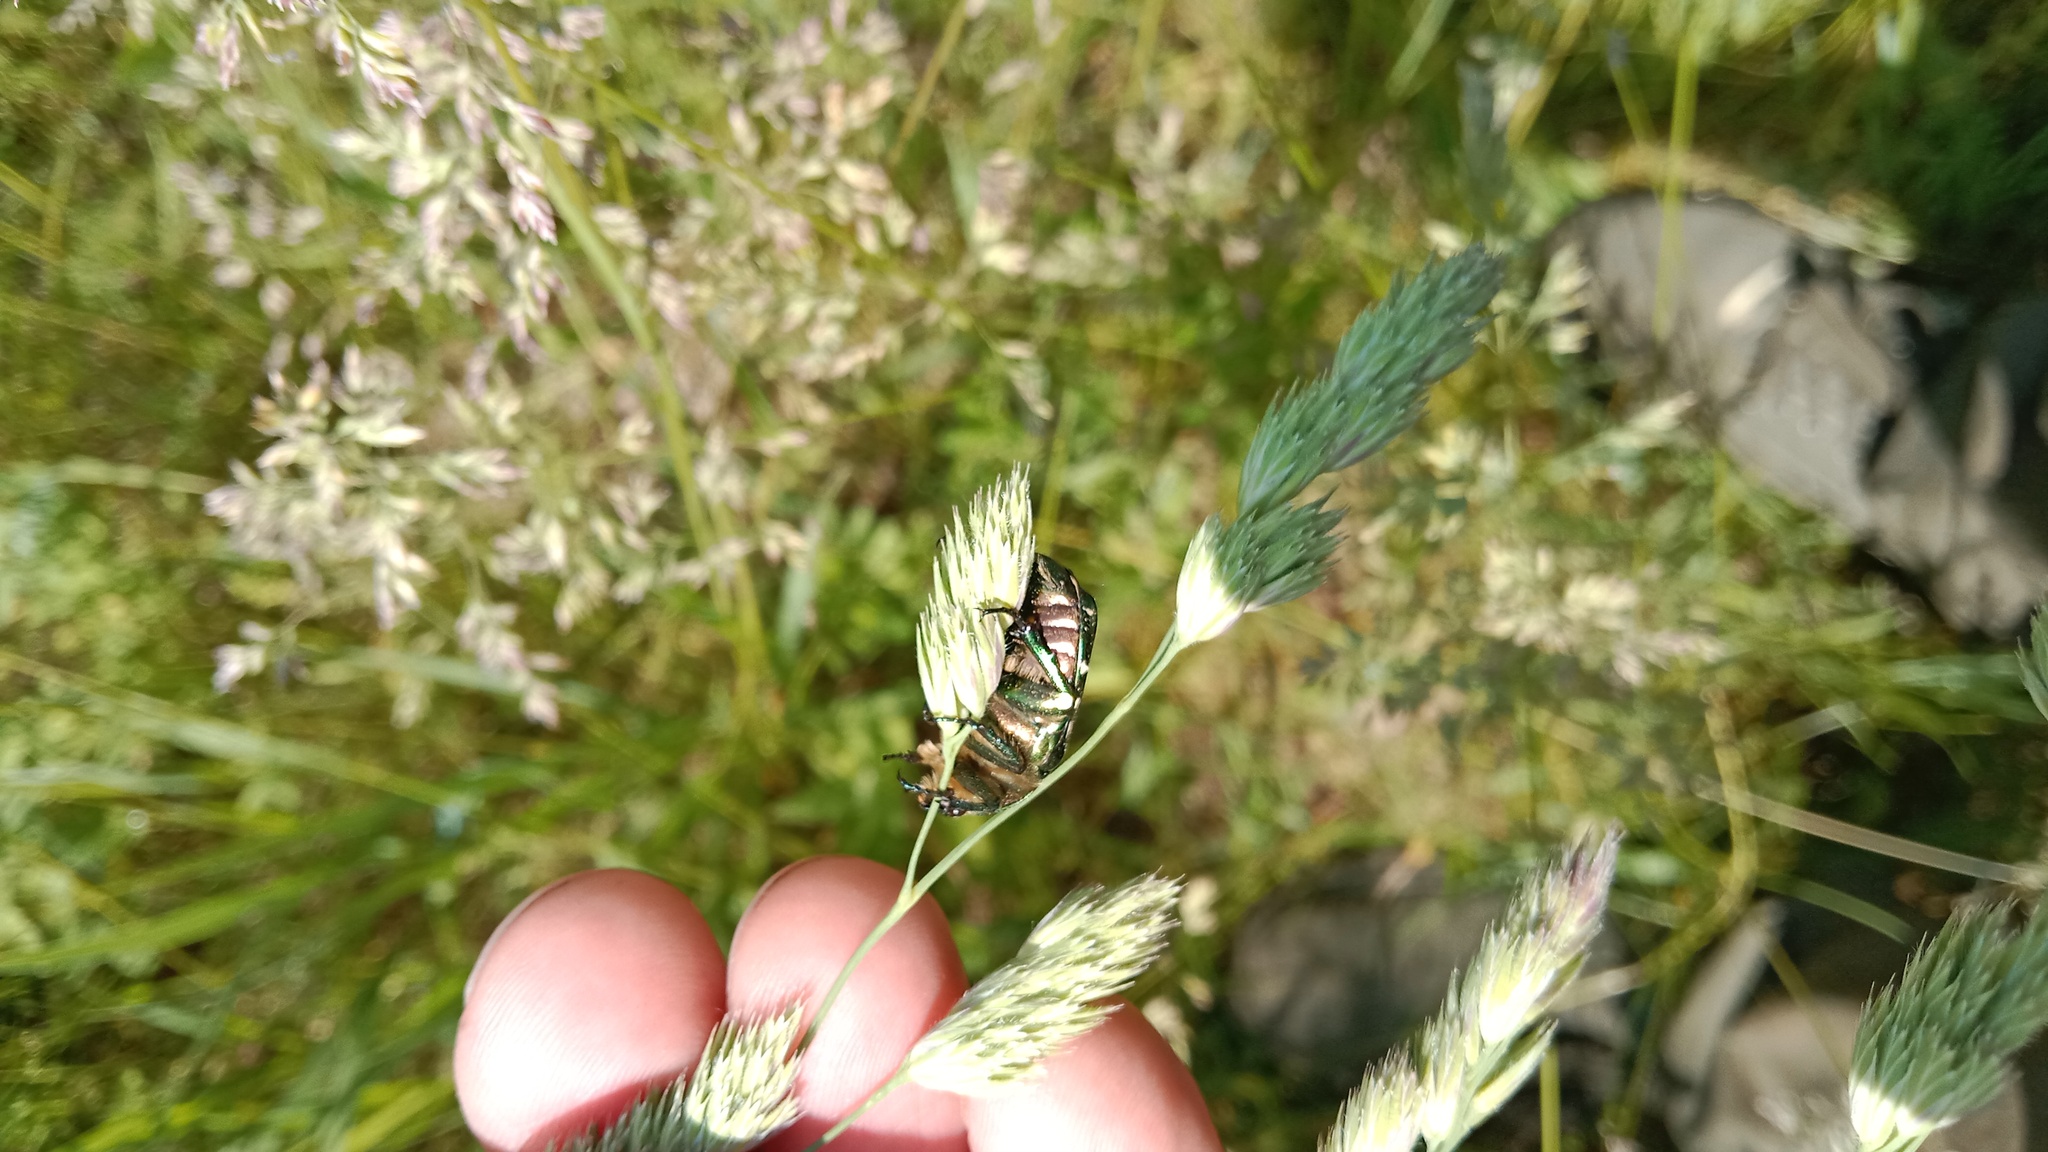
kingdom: Plantae
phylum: Tracheophyta
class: Liliopsida
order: Poales
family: Poaceae
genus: Dactylis
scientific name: Dactylis glomerata
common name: Orchardgrass
